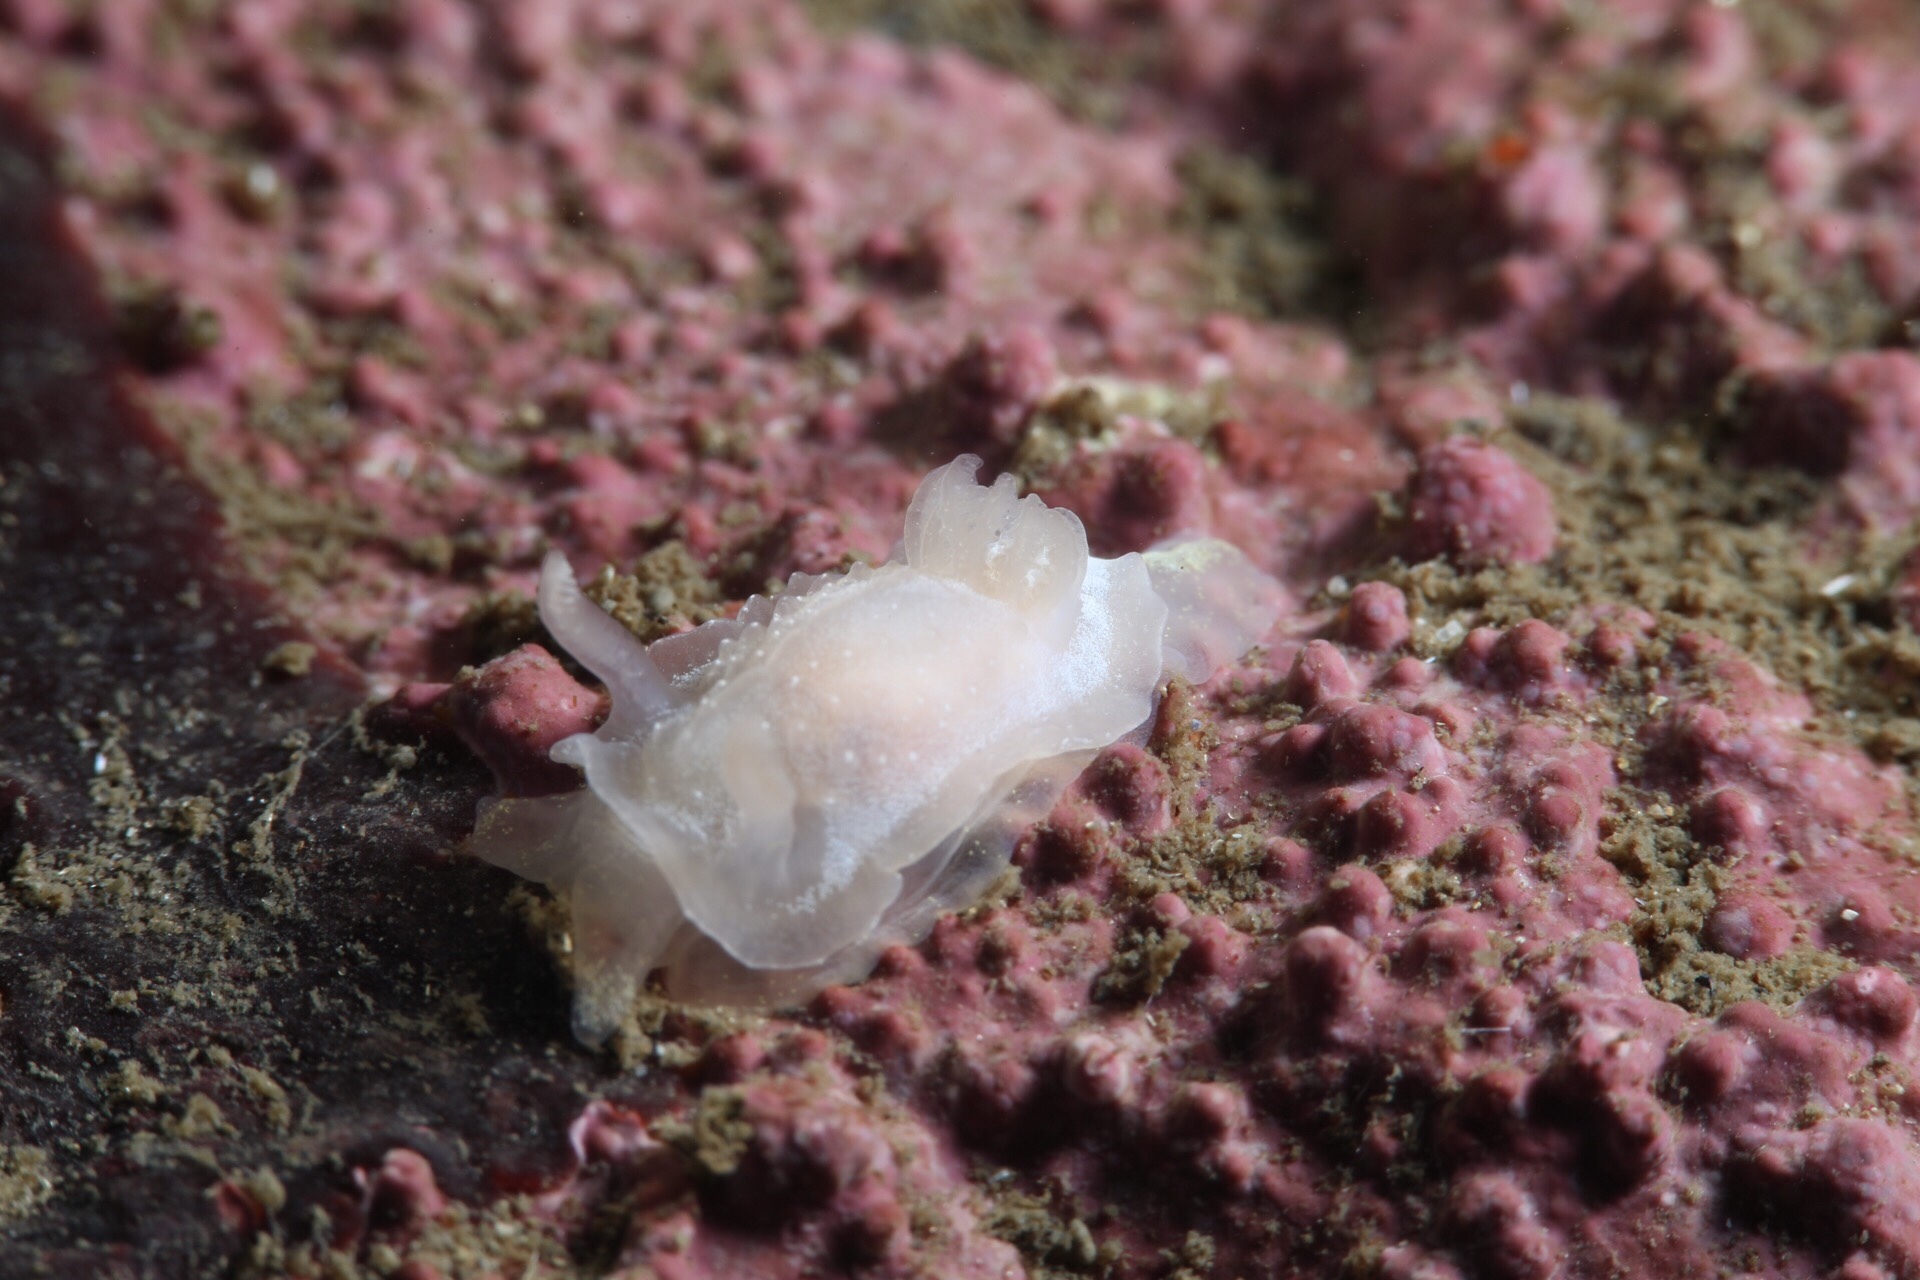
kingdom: Animalia
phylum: Mollusca
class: Gastropoda
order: Nudibranchia
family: Goniodorididae
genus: Okenia
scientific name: Okenia
